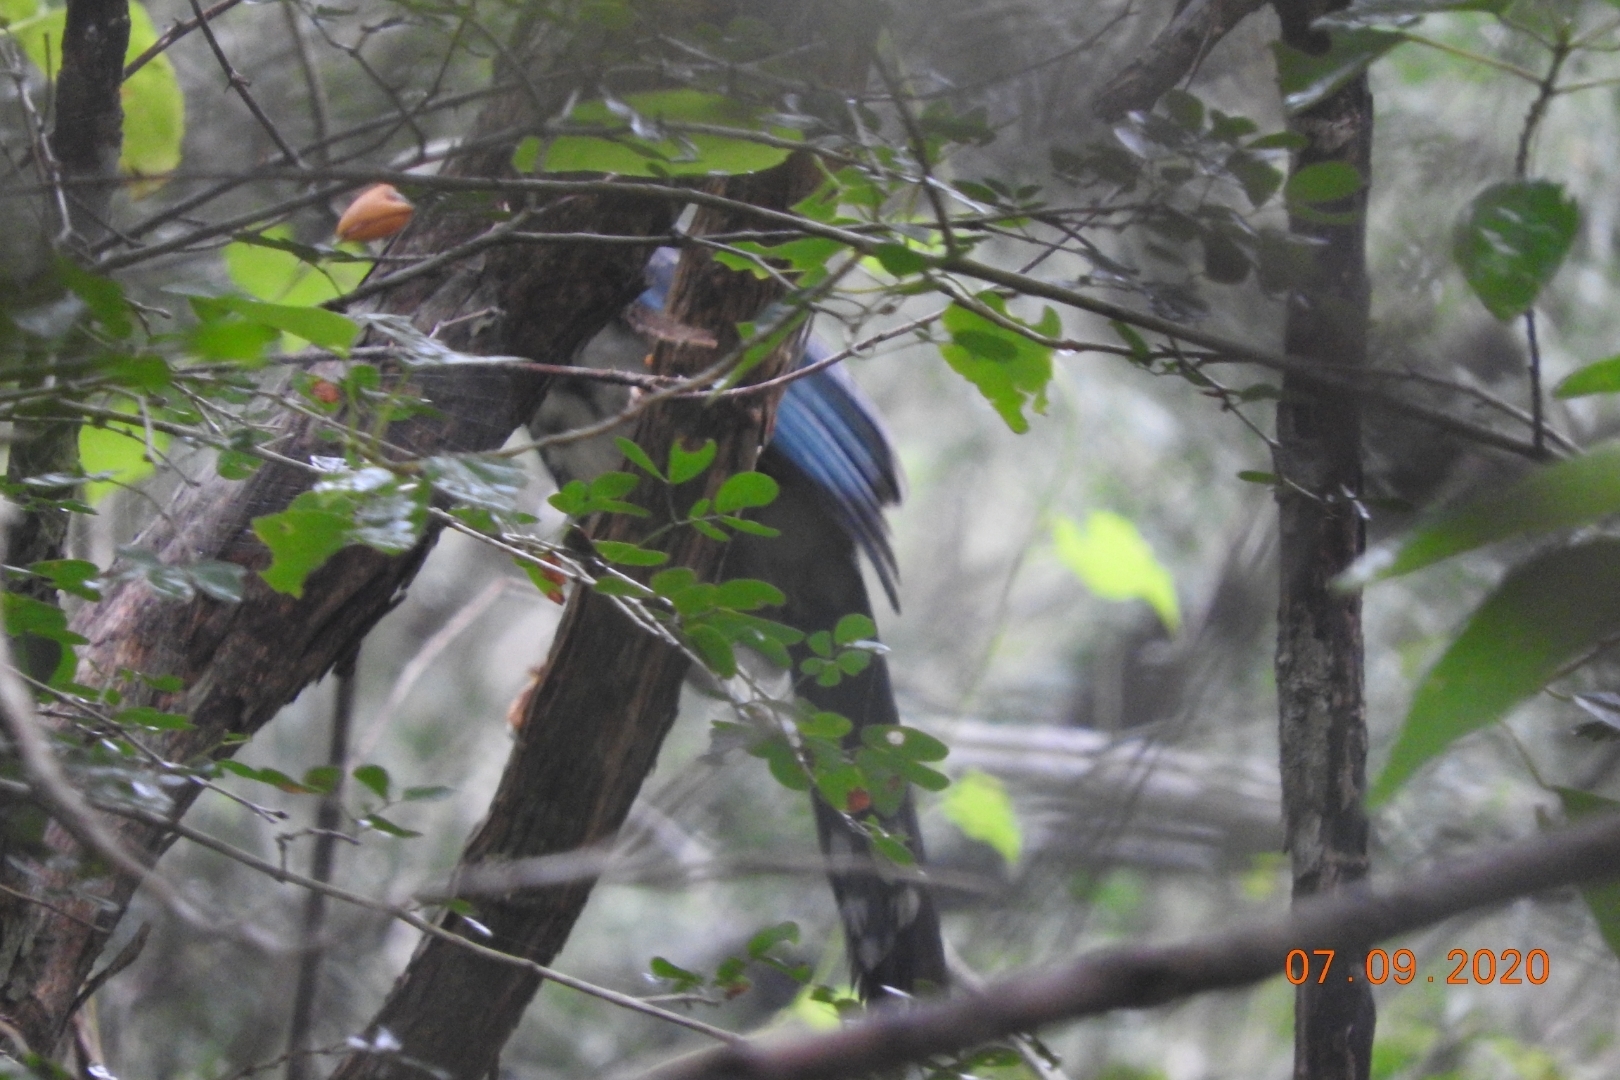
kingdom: Animalia
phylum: Chordata
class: Aves
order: Passeriformes
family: Corvidae
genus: Cyanocorax
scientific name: Cyanocorax yucatanicus
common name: Yucatan jay
